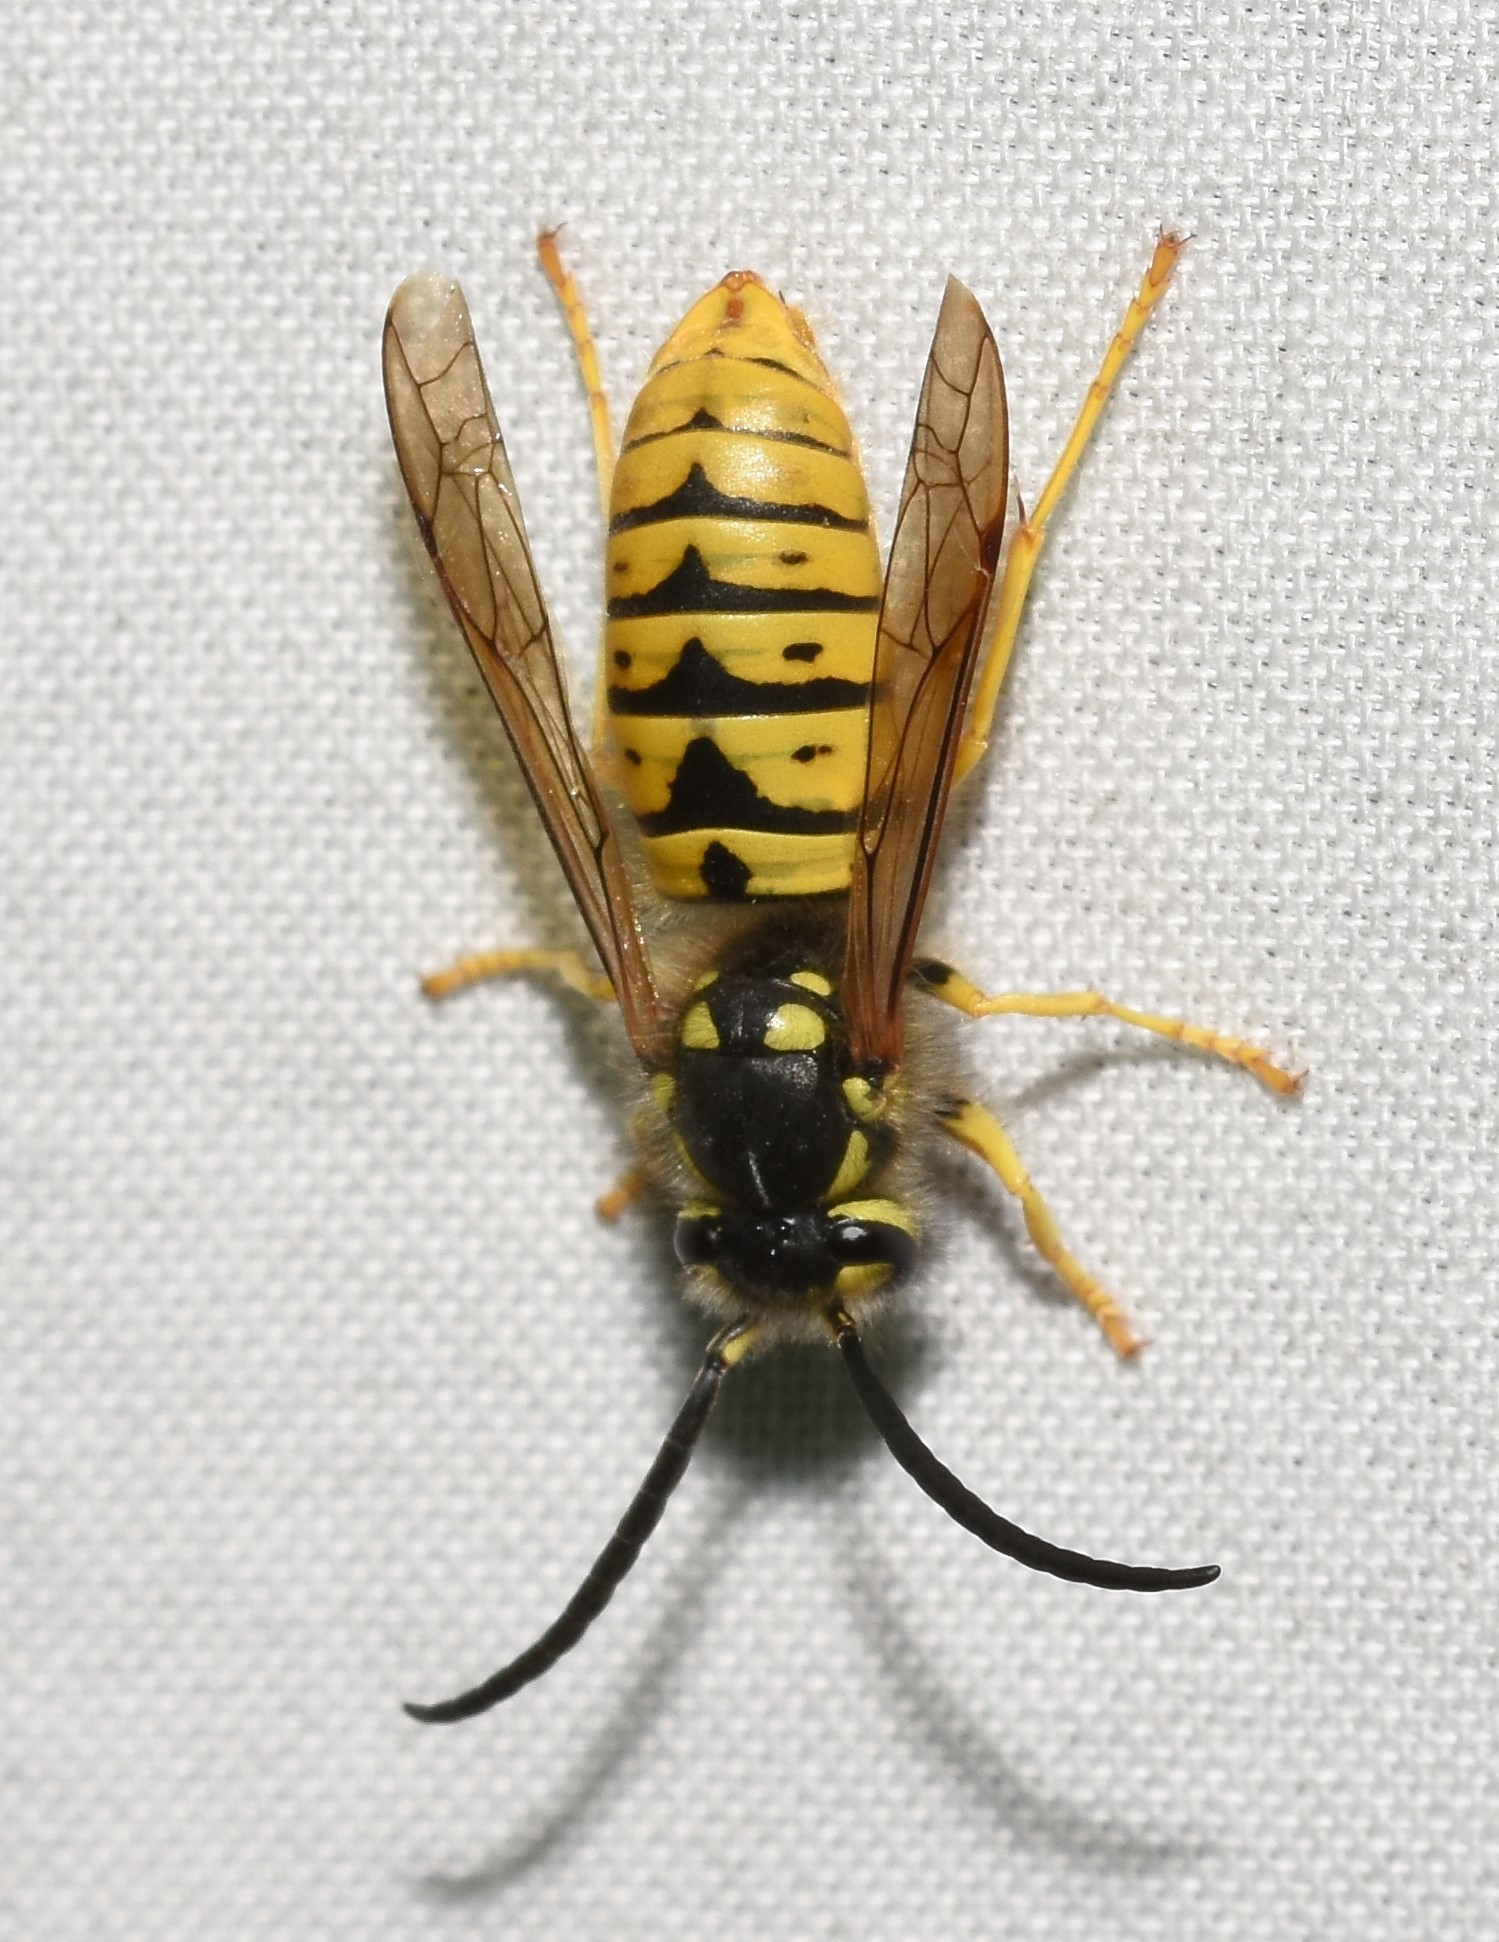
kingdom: Animalia
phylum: Arthropoda
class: Insecta
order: Hymenoptera
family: Vespidae
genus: Vespula
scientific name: Vespula germanica
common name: German wasp
